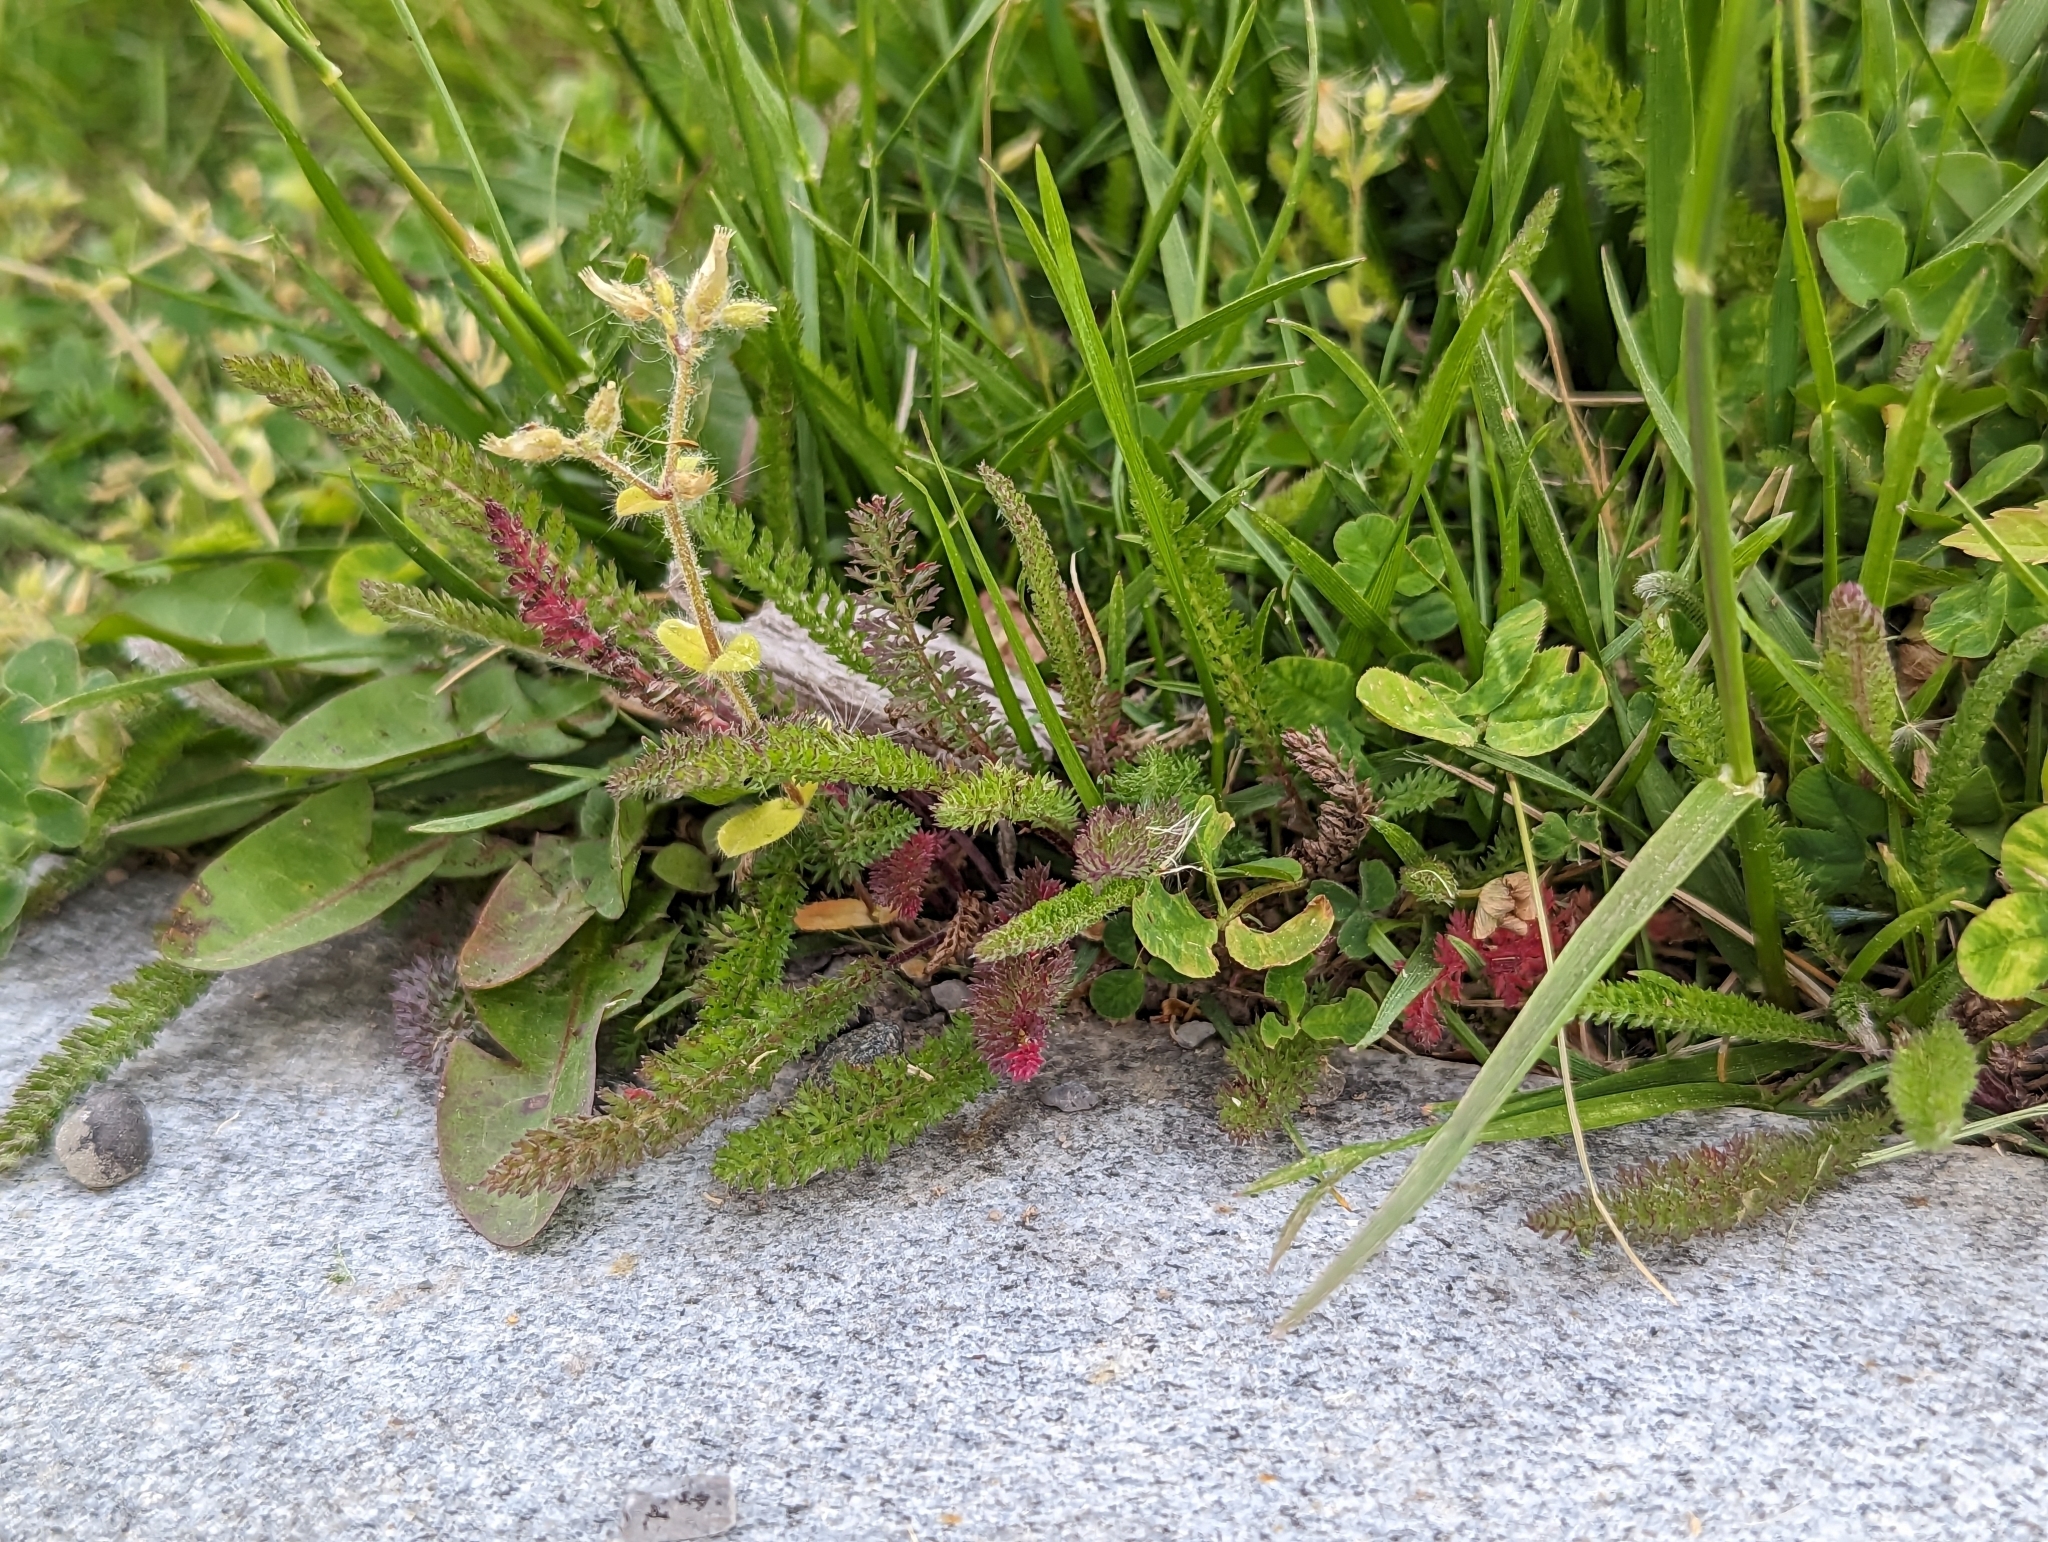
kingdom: Plantae
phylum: Tracheophyta
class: Magnoliopsida
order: Asterales
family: Asteraceae
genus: Achillea
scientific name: Achillea millefolium
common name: Yarrow
